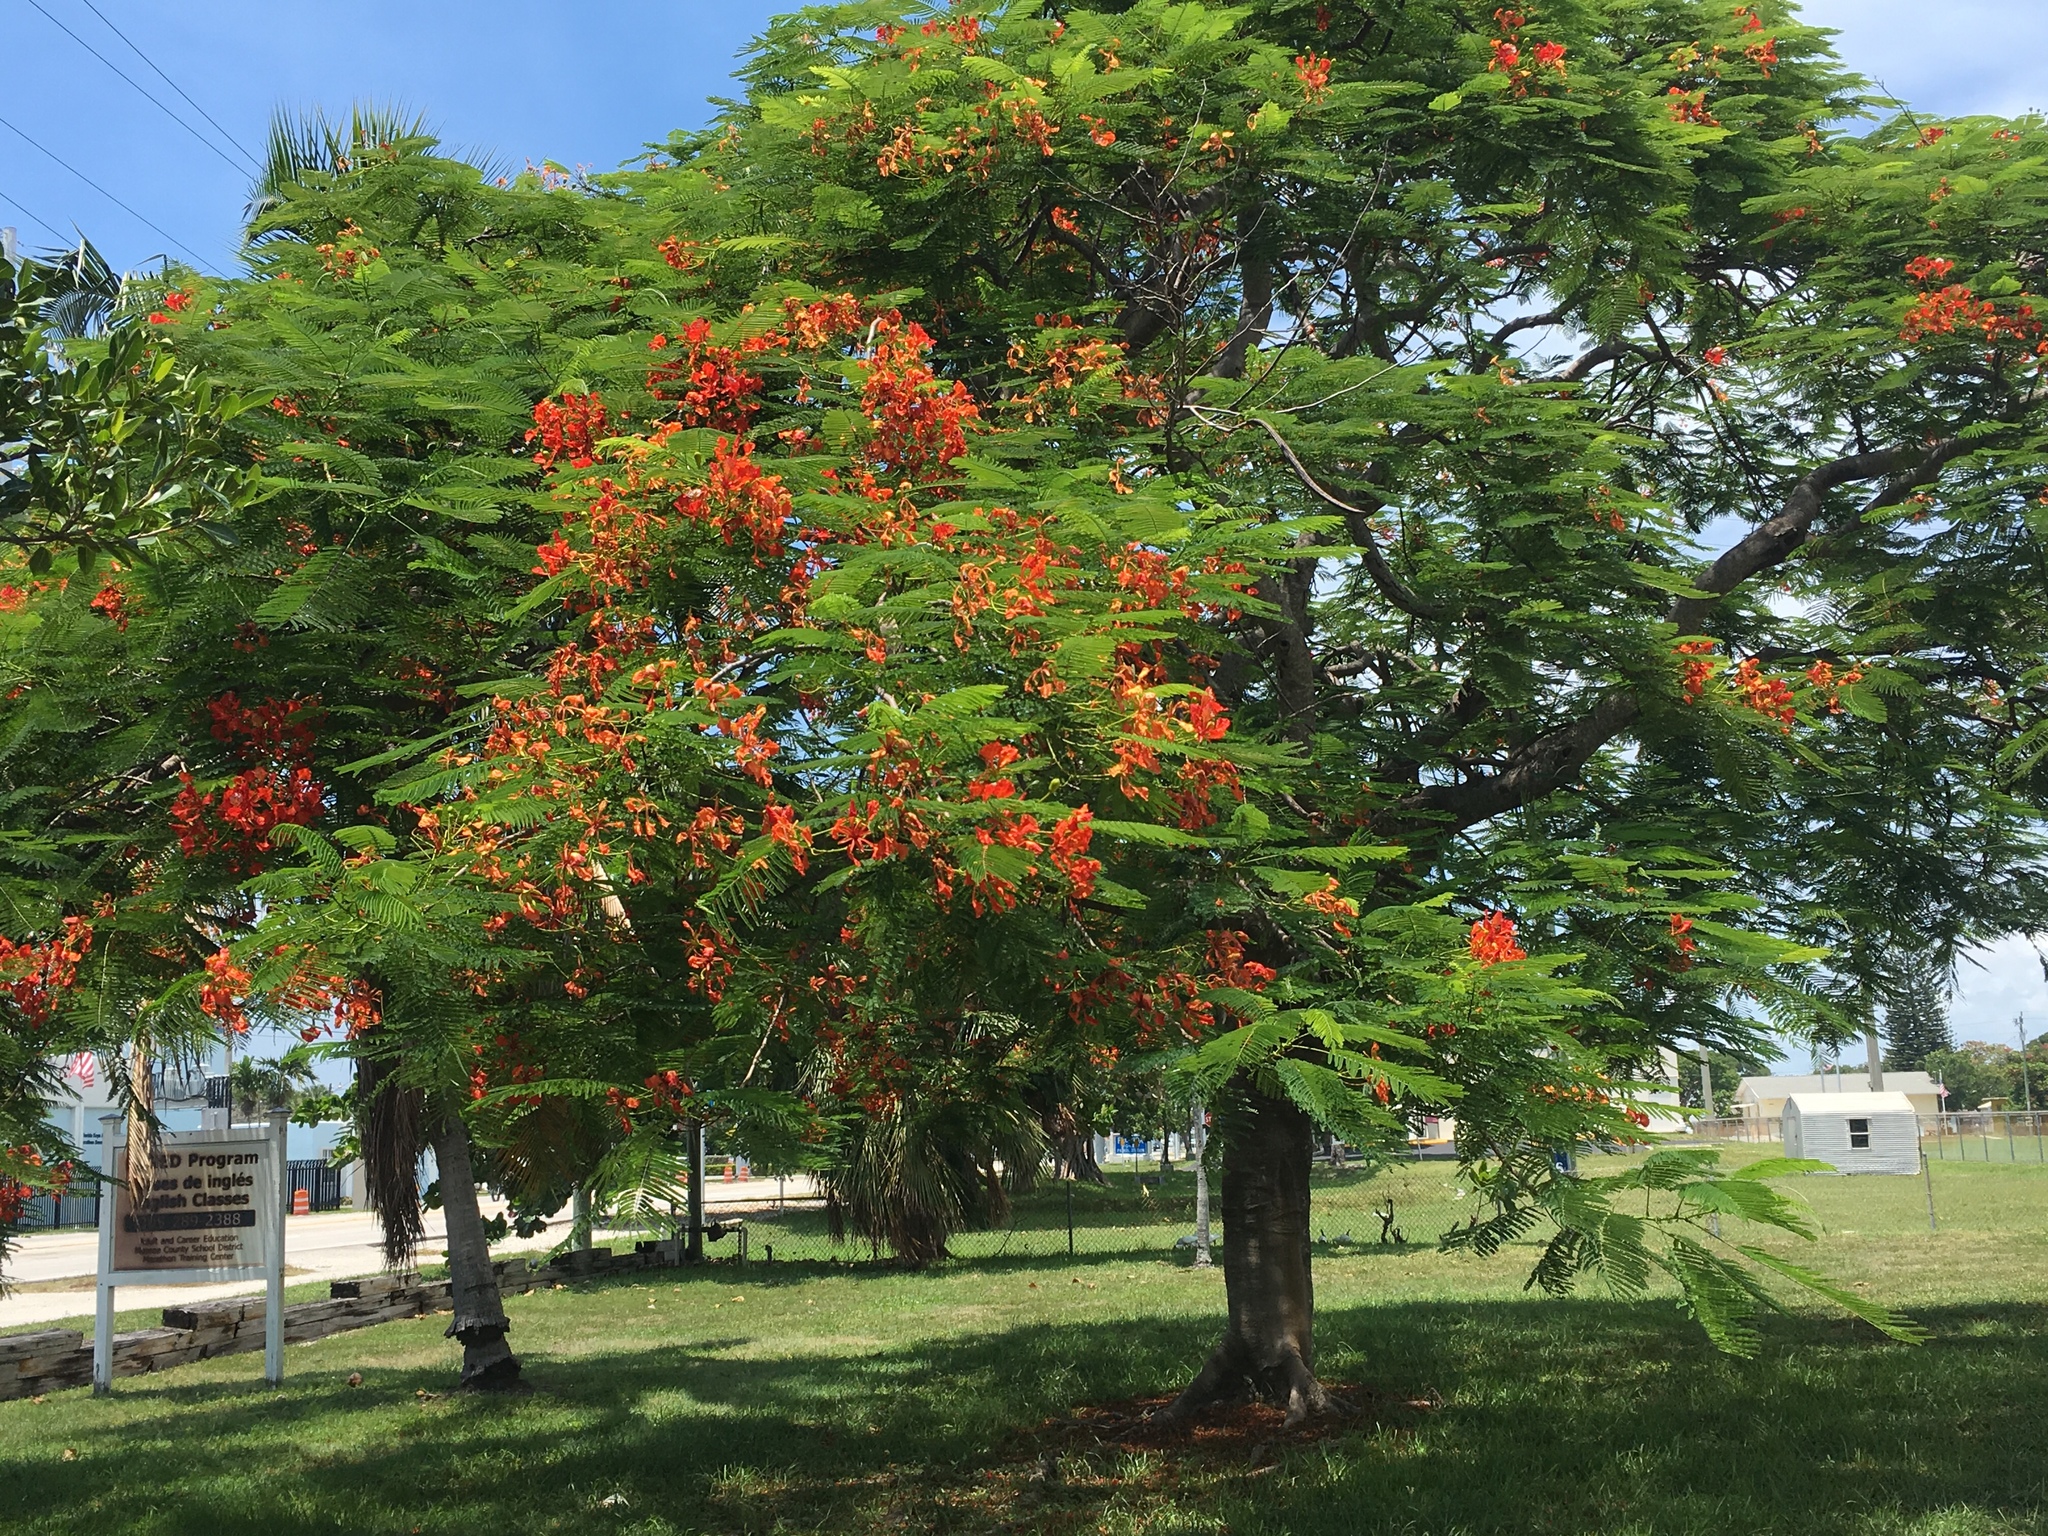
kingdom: Plantae
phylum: Tracheophyta
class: Magnoliopsida
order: Fabales
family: Fabaceae
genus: Delonix
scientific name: Delonix regia
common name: Royal poinciana
